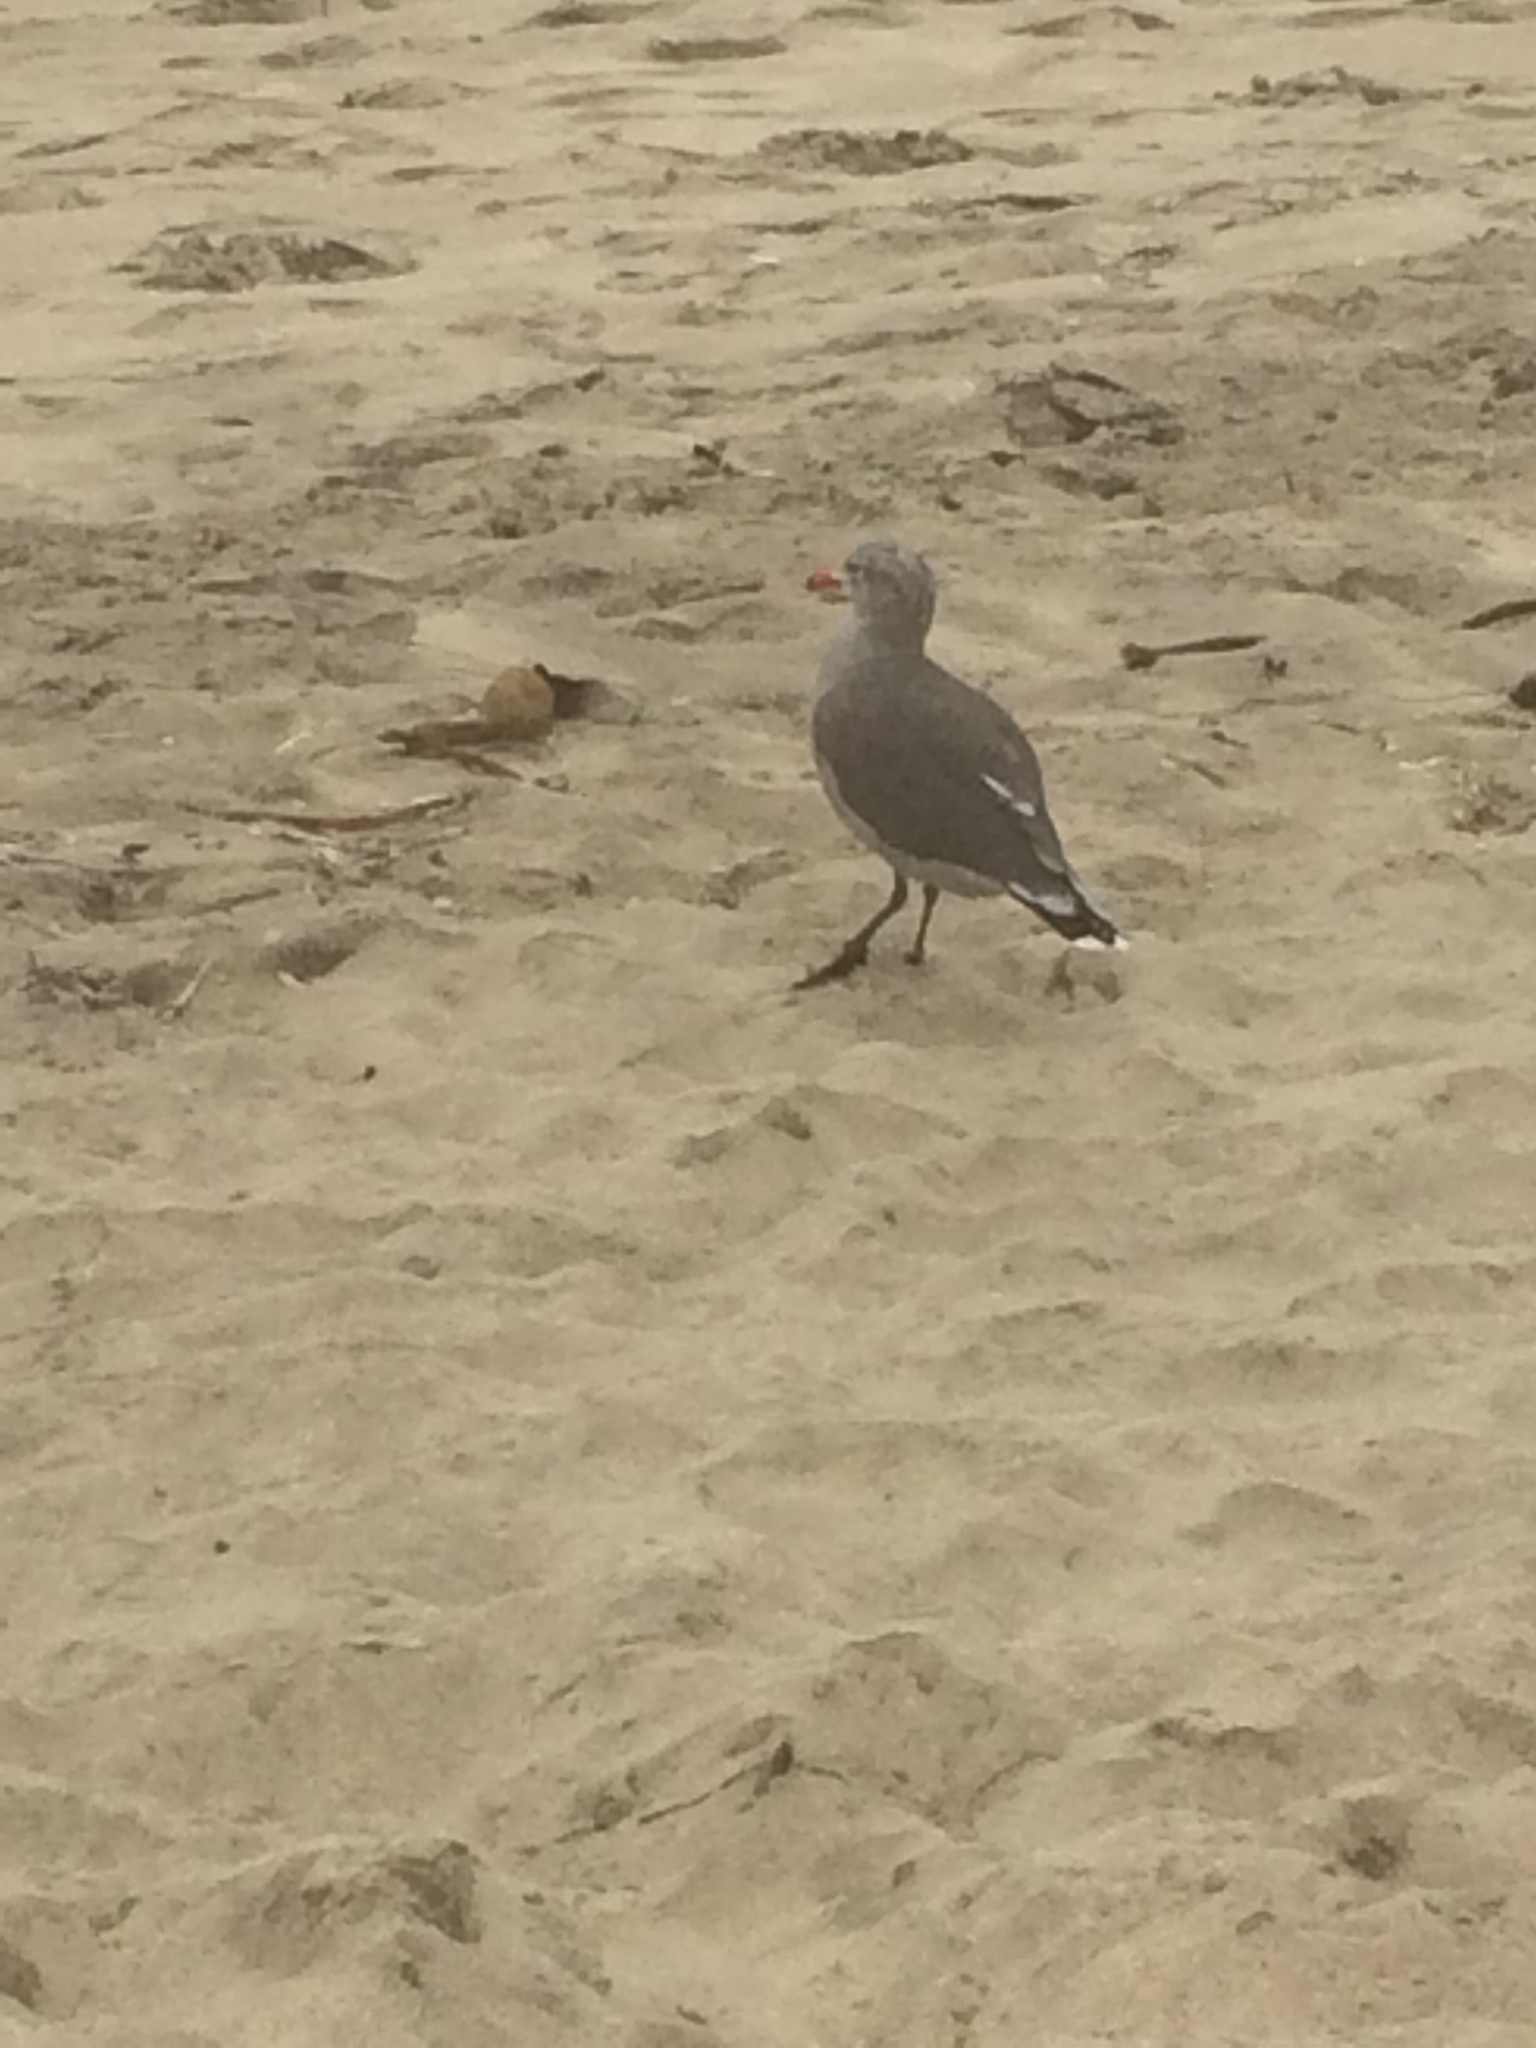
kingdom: Animalia
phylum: Chordata
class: Aves
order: Charadriiformes
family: Laridae
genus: Larus
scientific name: Larus heermanni
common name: Heermann's gull
